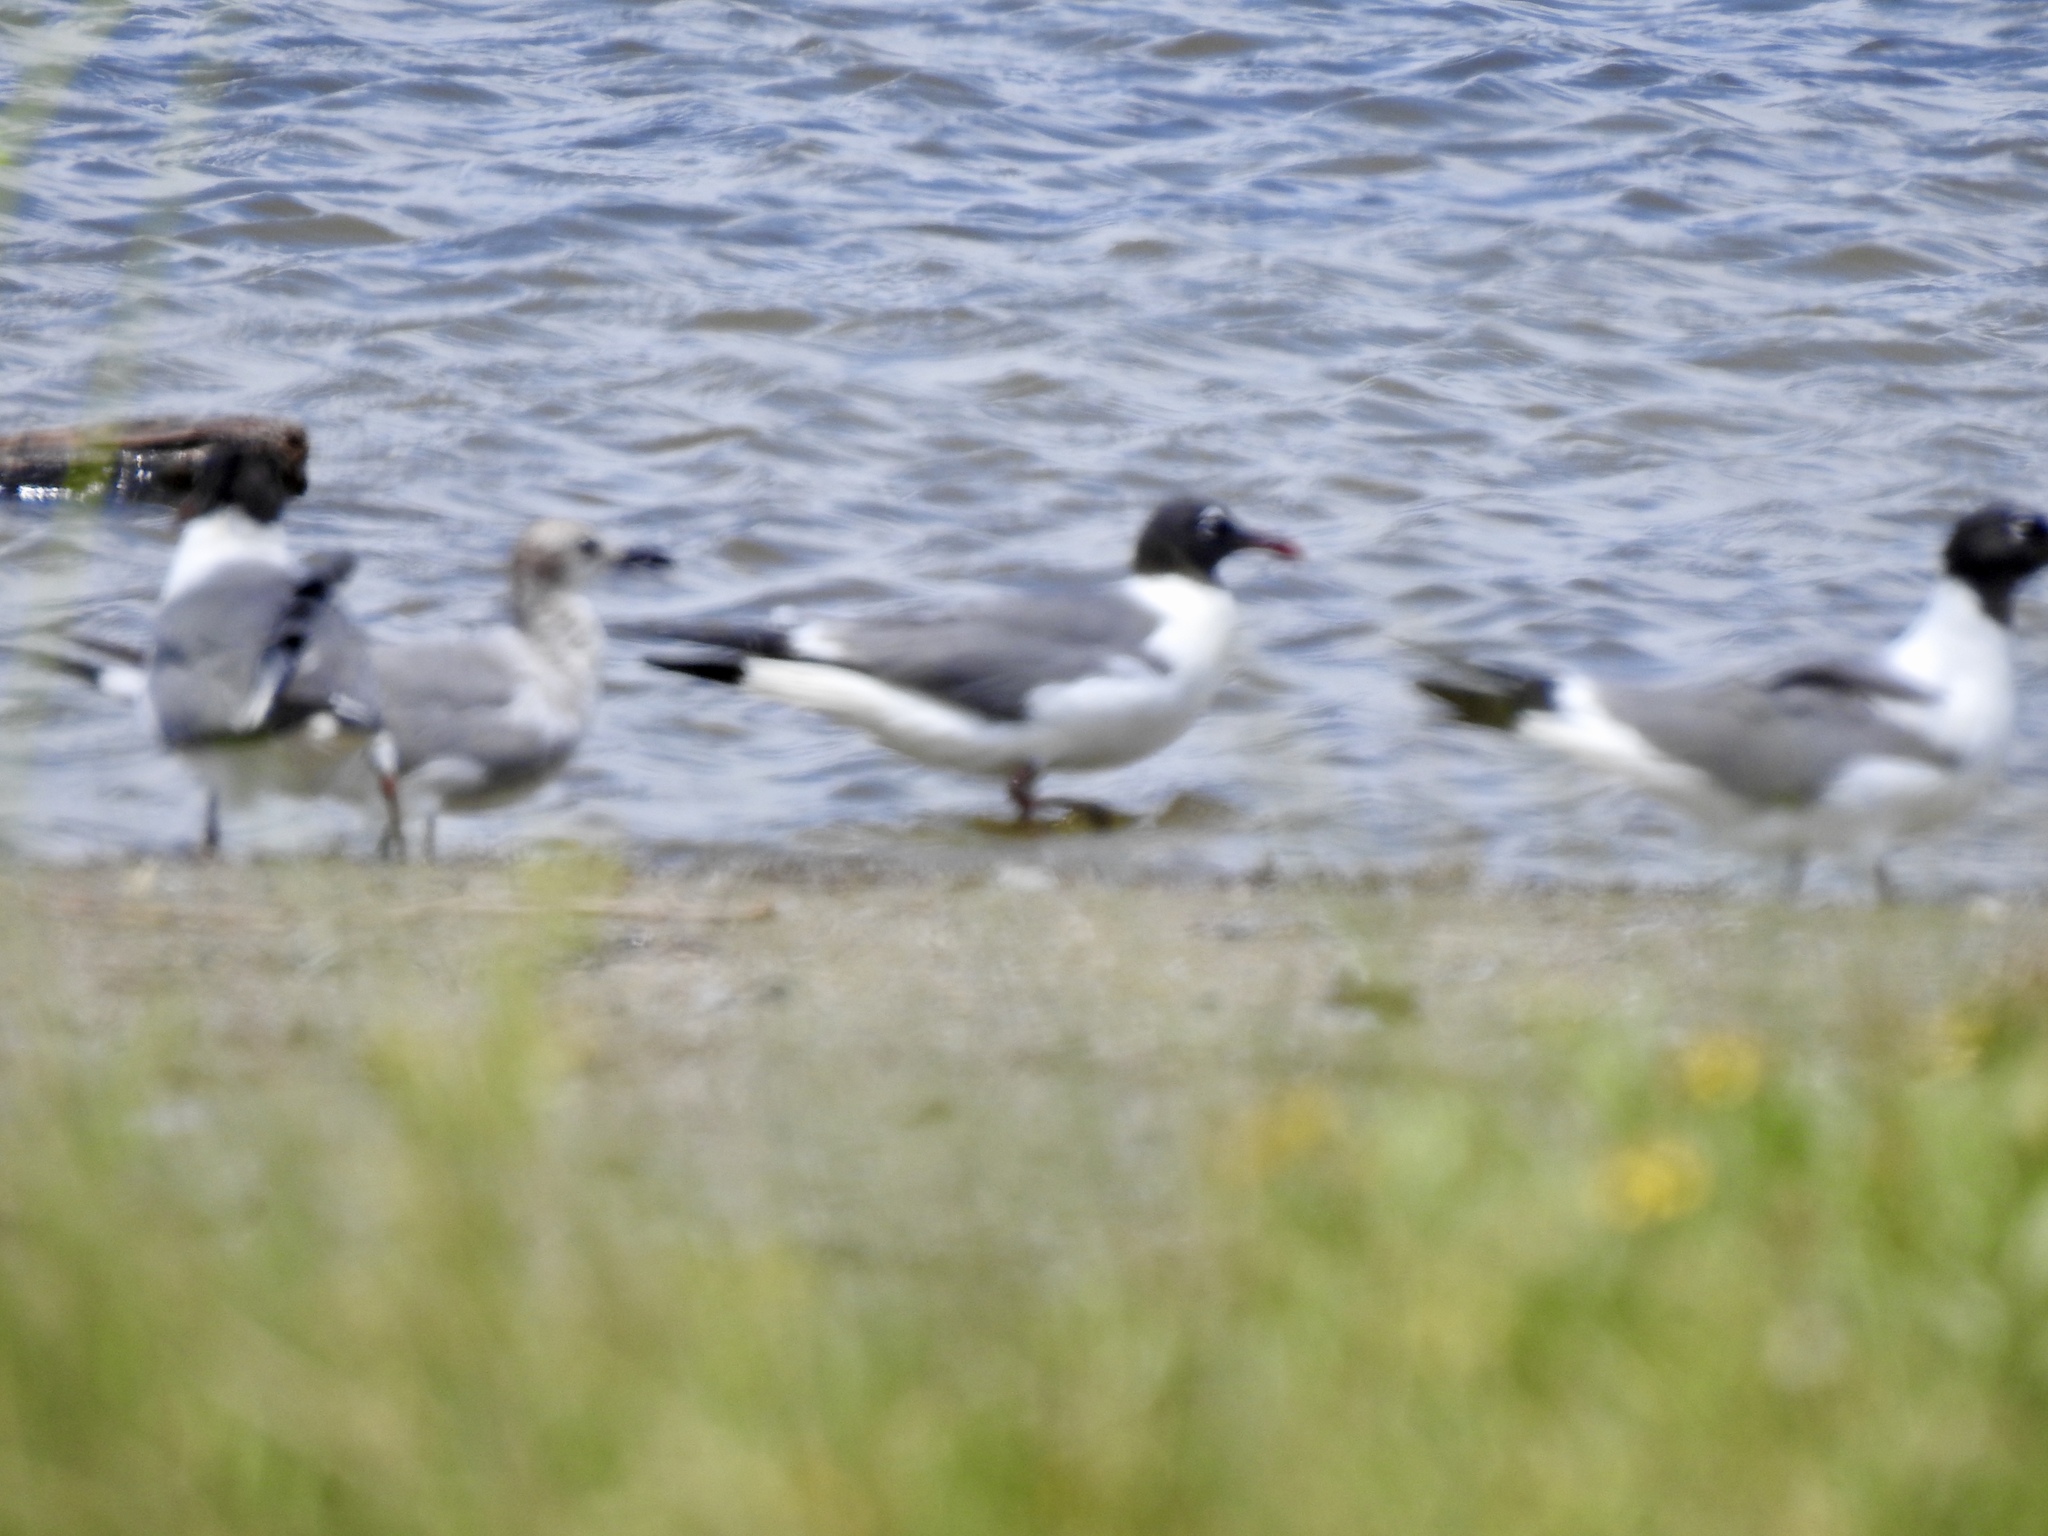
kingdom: Animalia
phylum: Chordata
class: Aves
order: Charadriiformes
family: Laridae
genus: Leucophaeus
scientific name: Leucophaeus atricilla
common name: Laughing gull
